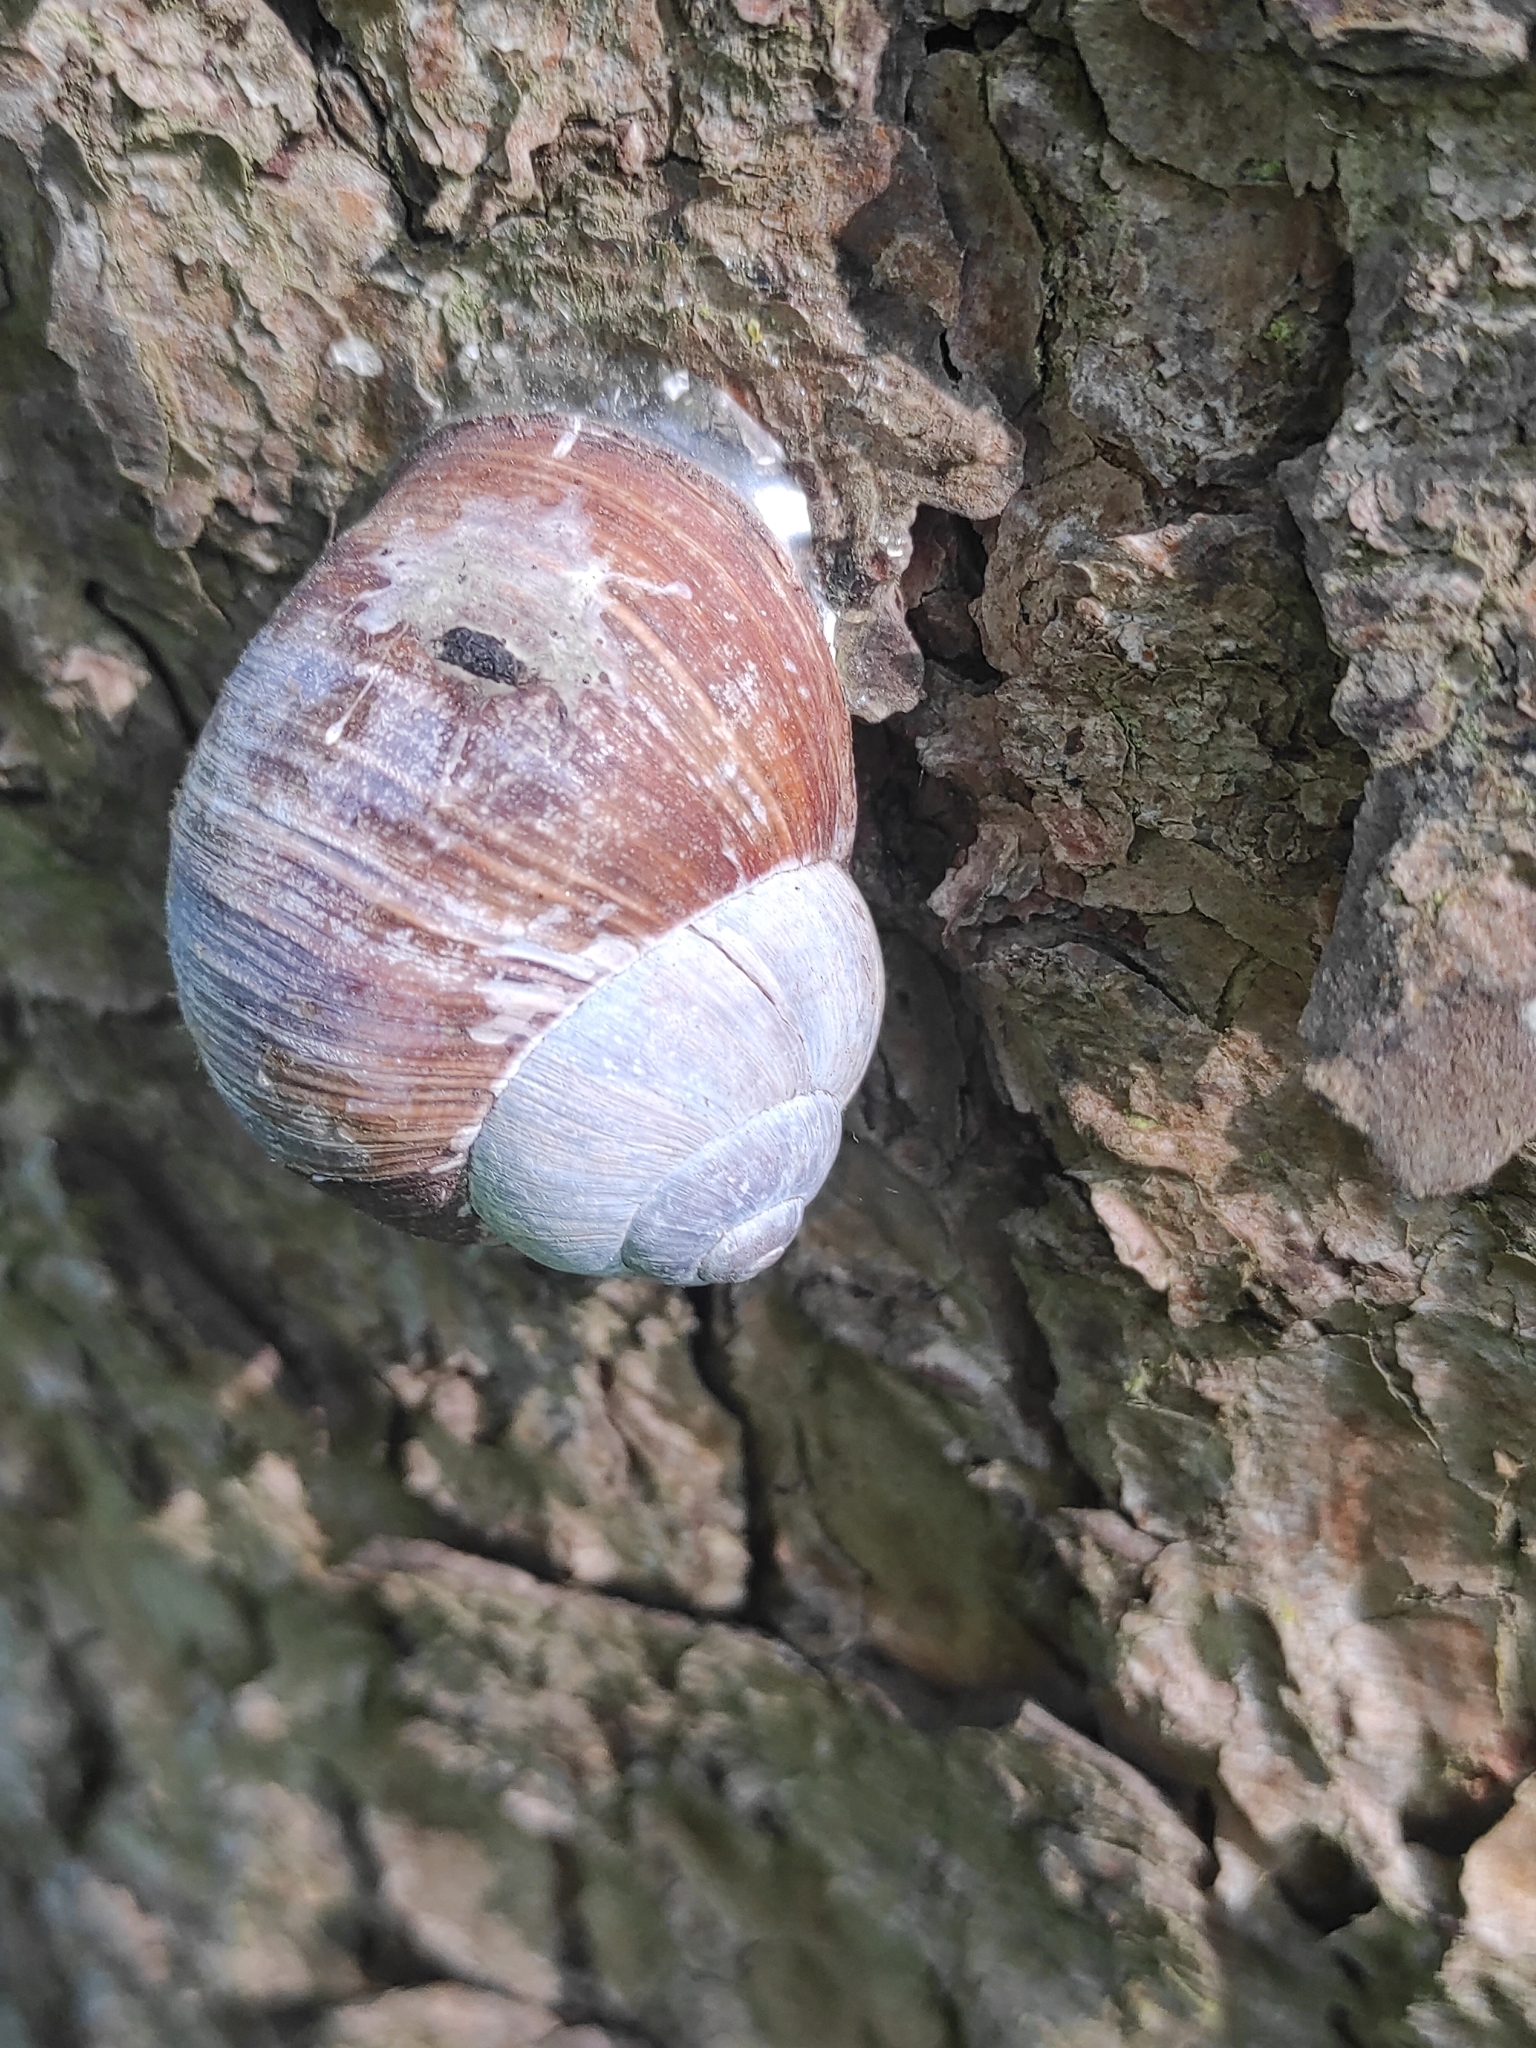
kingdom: Animalia
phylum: Mollusca
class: Gastropoda
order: Stylommatophora
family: Helicidae
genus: Helix
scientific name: Helix pomatia
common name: Roman snail
